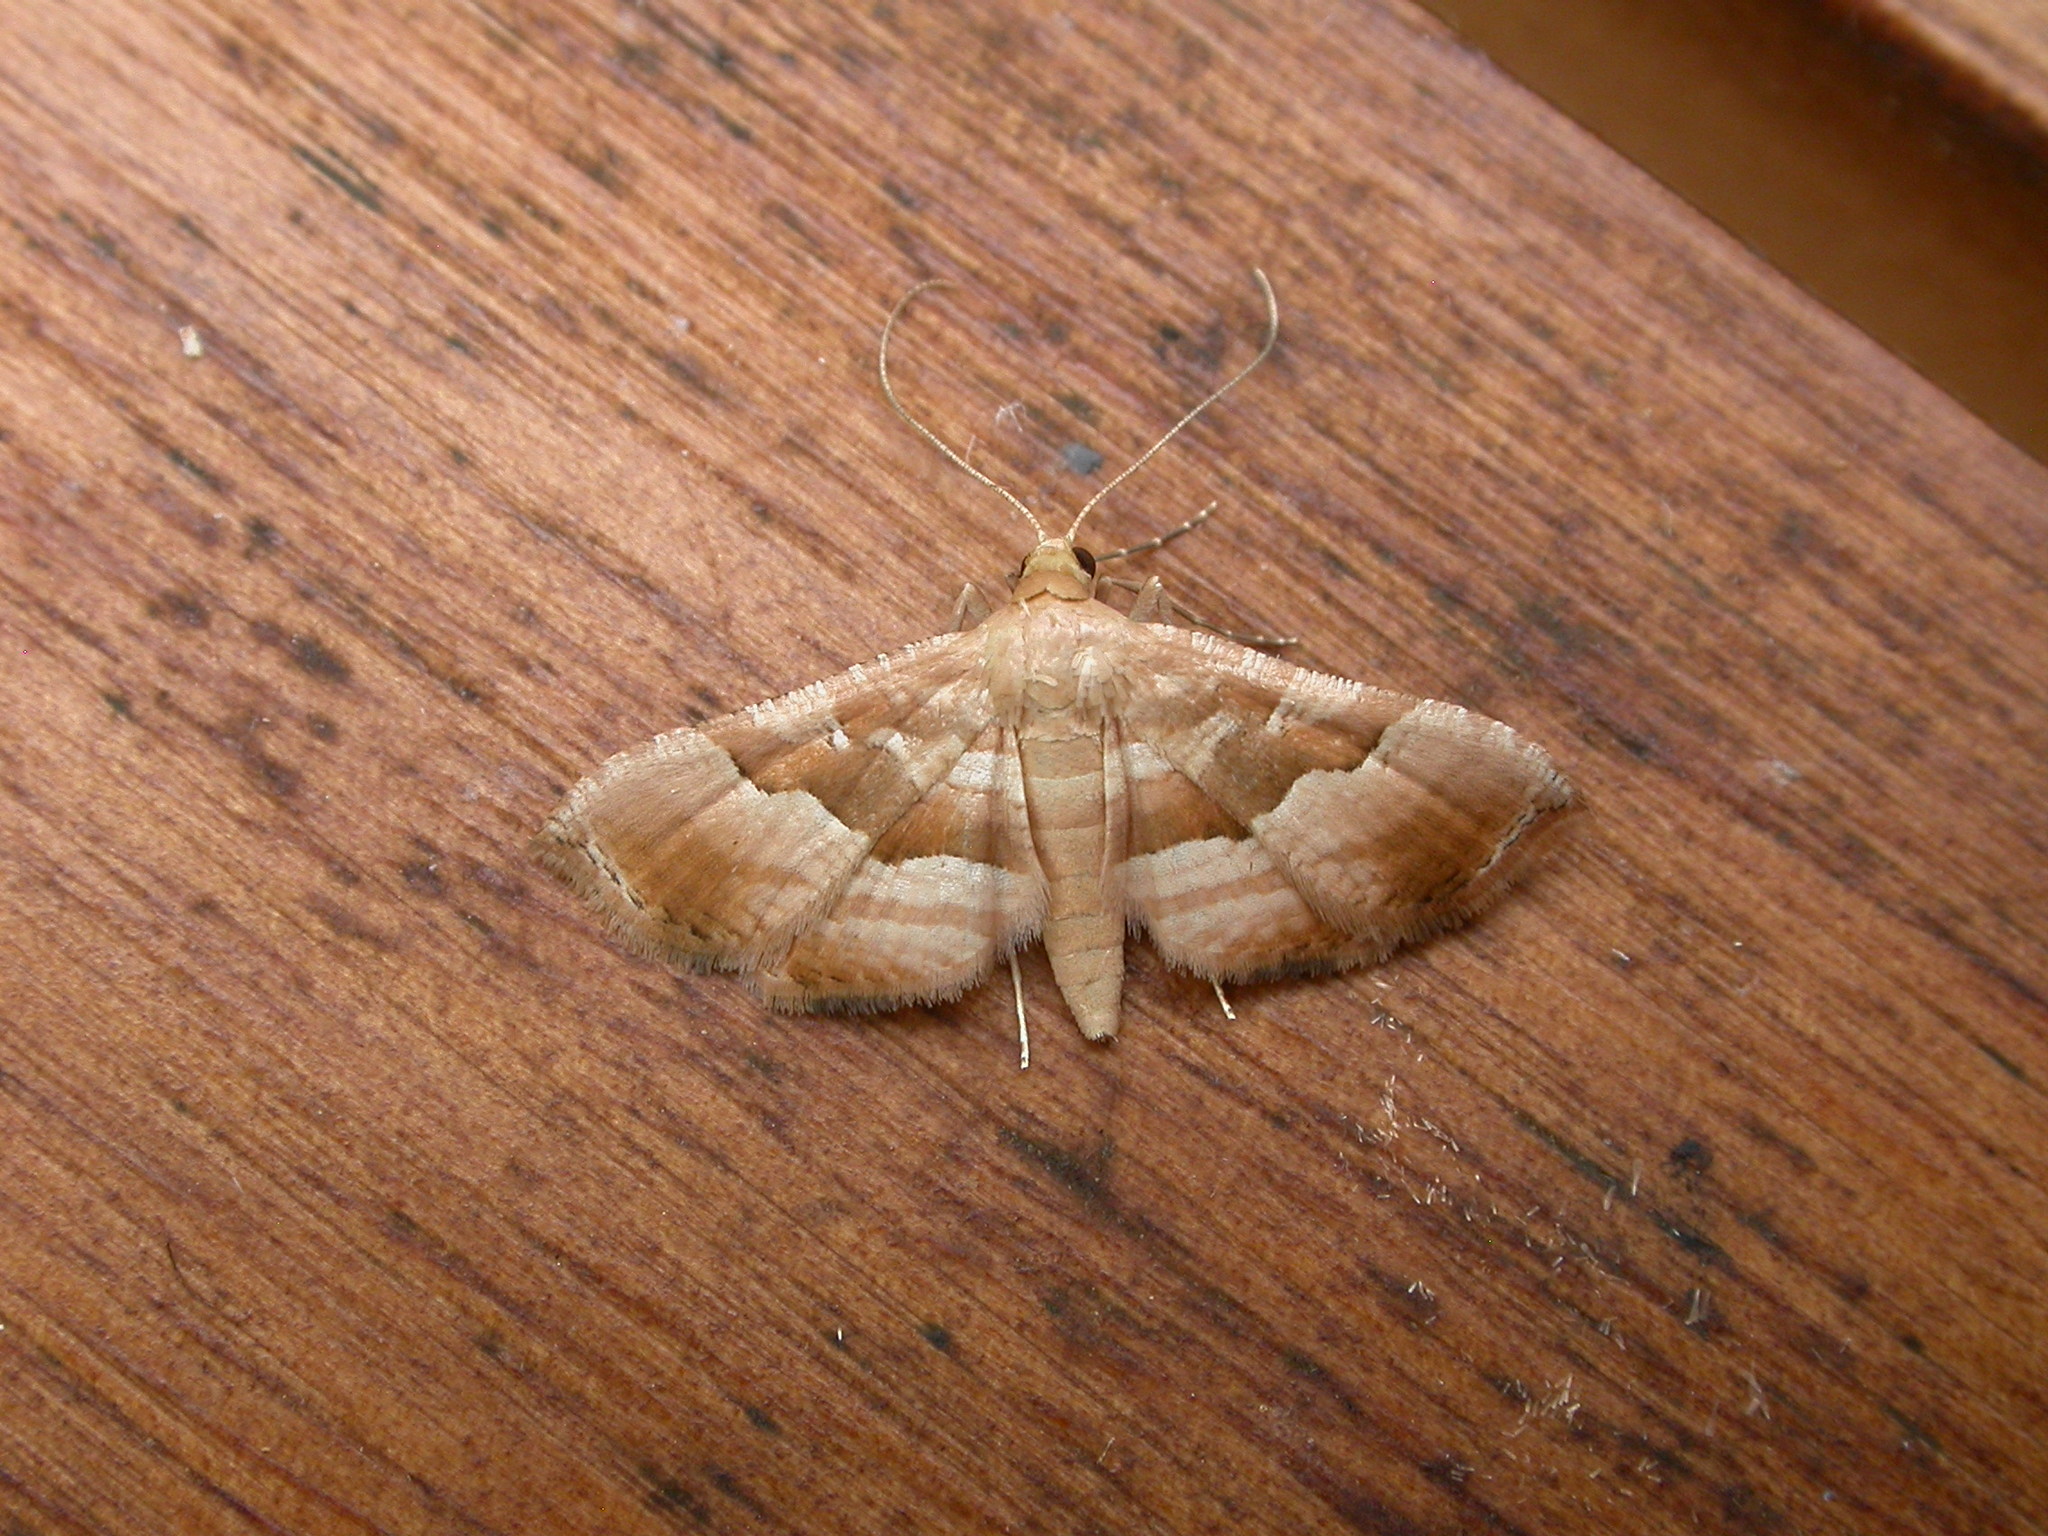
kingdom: Animalia
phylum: Arthropoda
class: Insecta
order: Lepidoptera
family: Thyrididae
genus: Addaea
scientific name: Addaea pusilla
